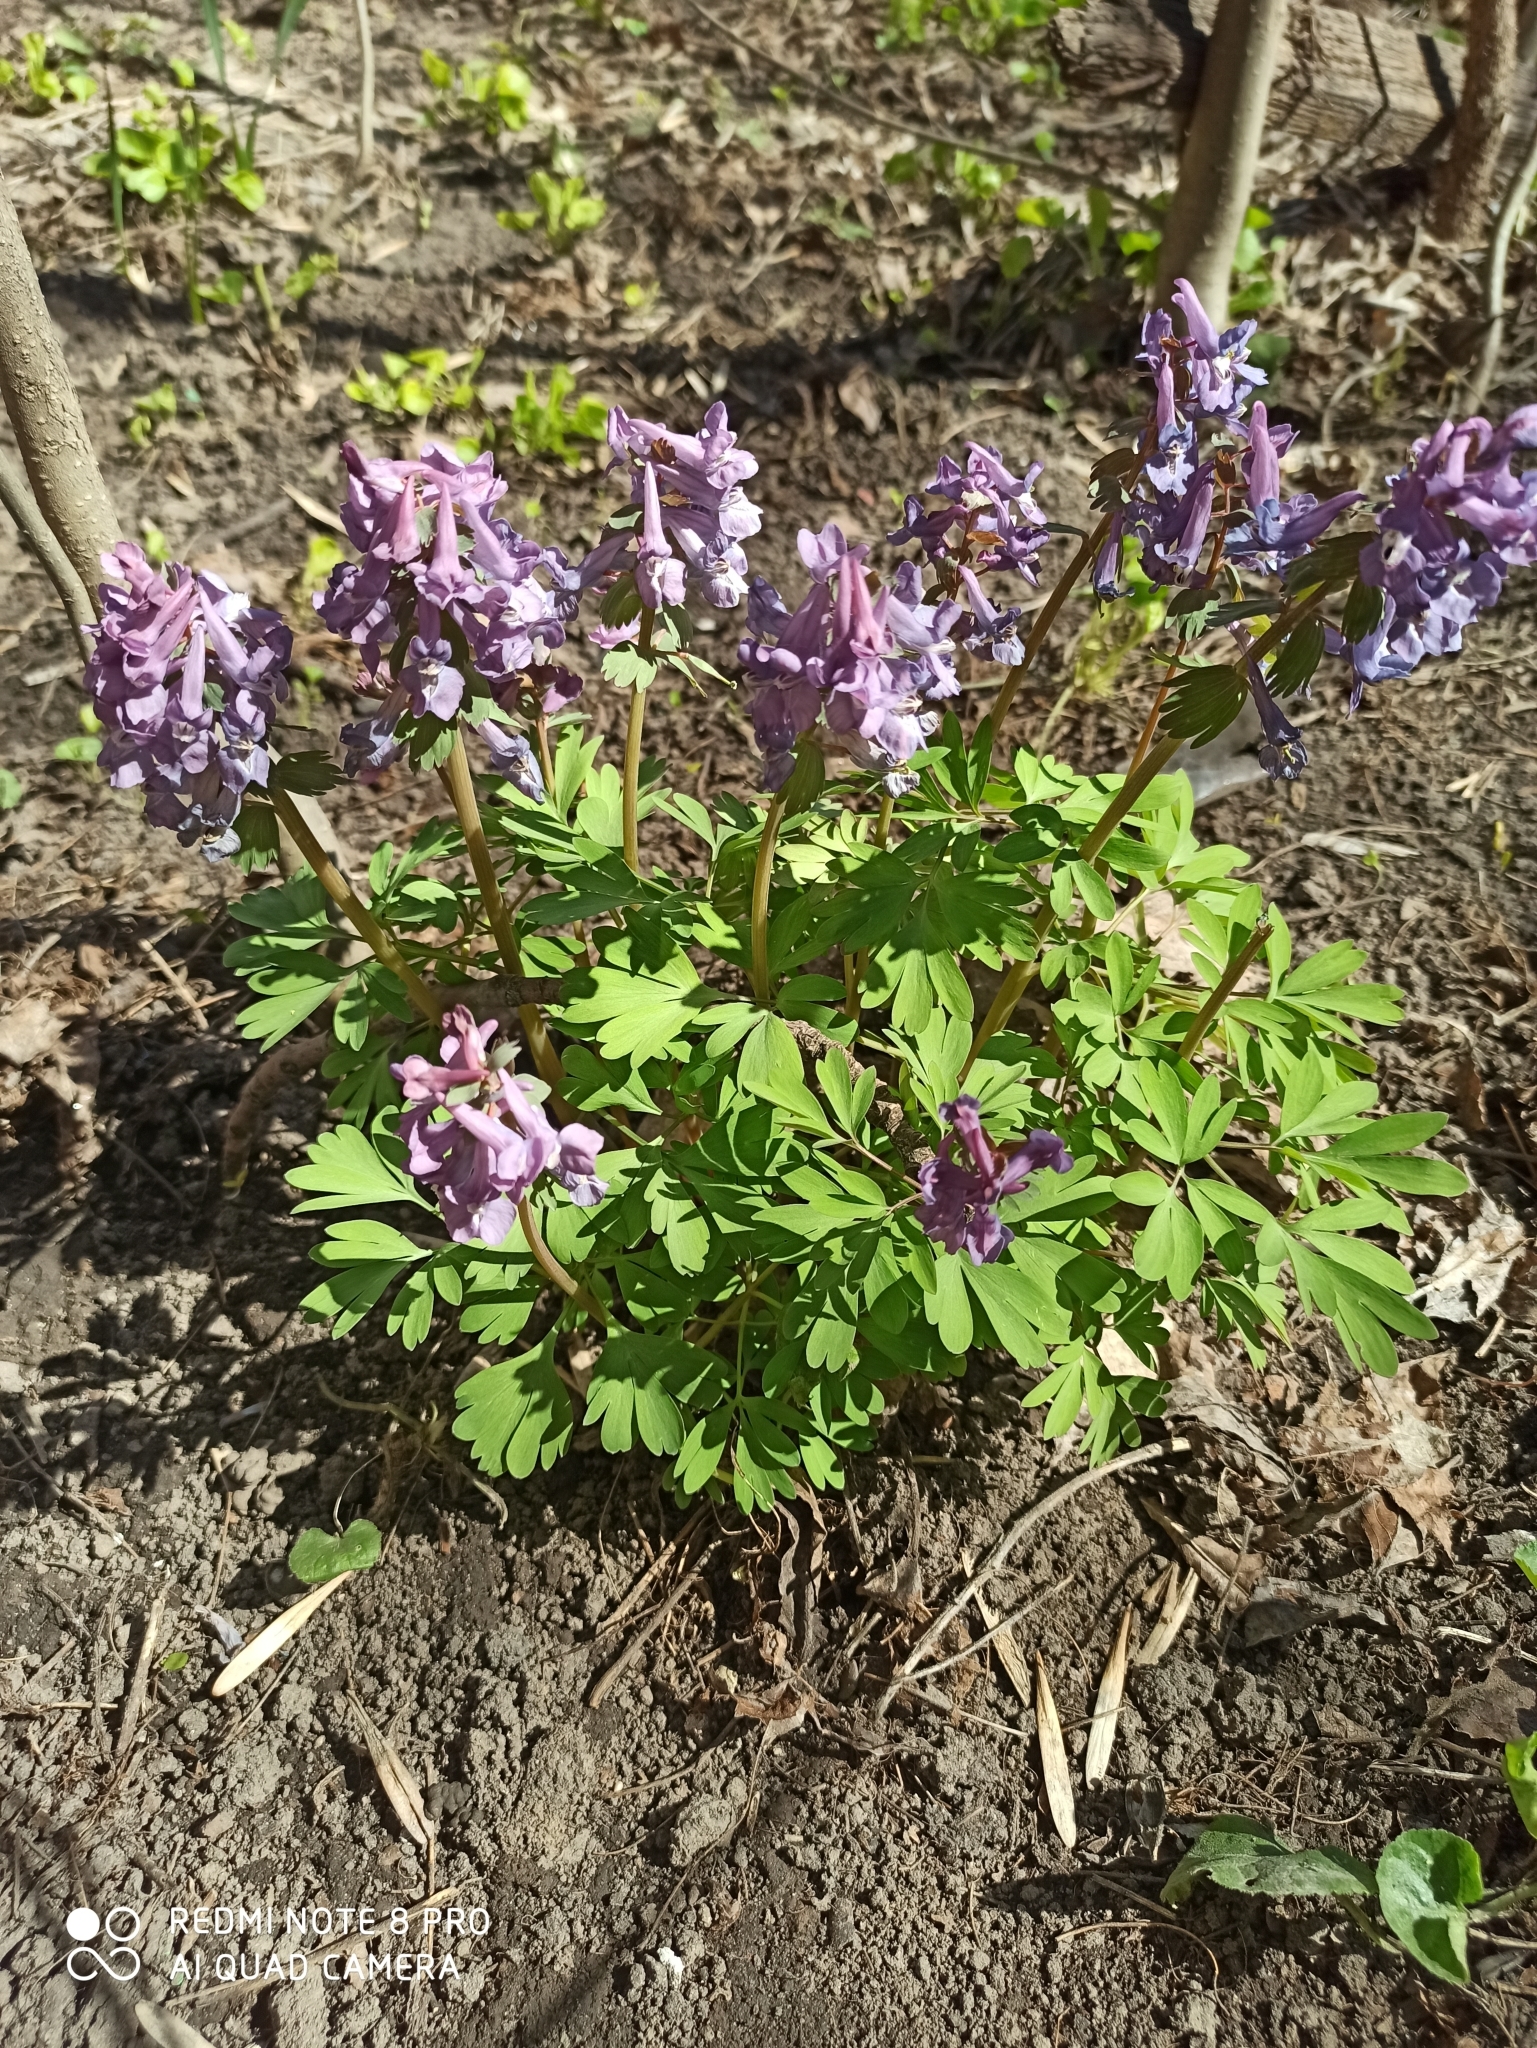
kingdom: Plantae
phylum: Tracheophyta
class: Magnoliopsida
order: Ranunculales
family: Papaveraceae
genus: Corydalis
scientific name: Corydalis solida
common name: Bird-in-a-bush
